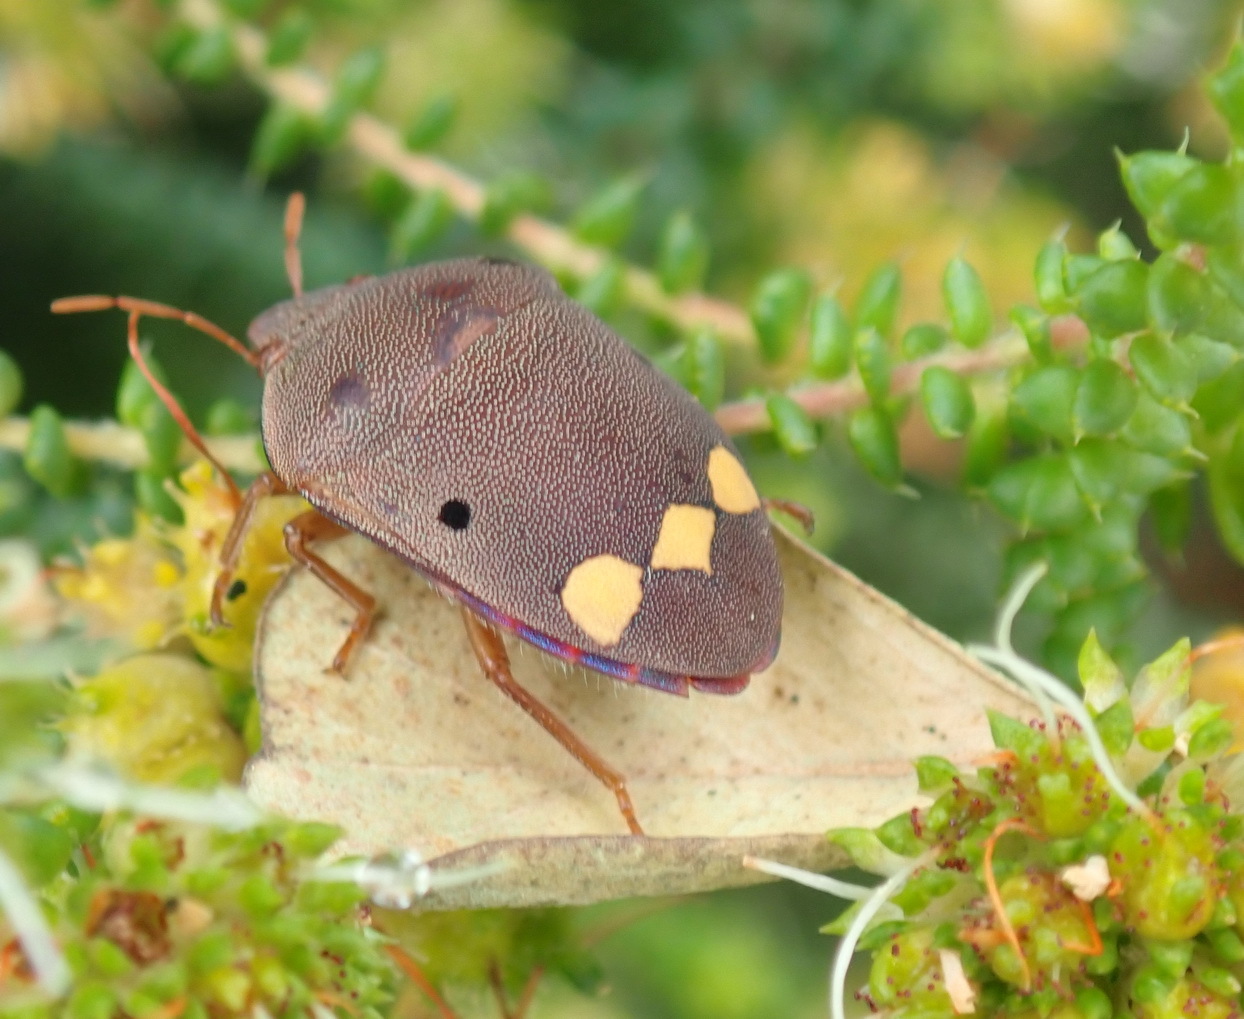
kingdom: Animalia
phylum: Arthropoda
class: Insecta
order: Hemiptera
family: Scutelleridae
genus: Solenosthedium
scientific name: Solenosthedium
